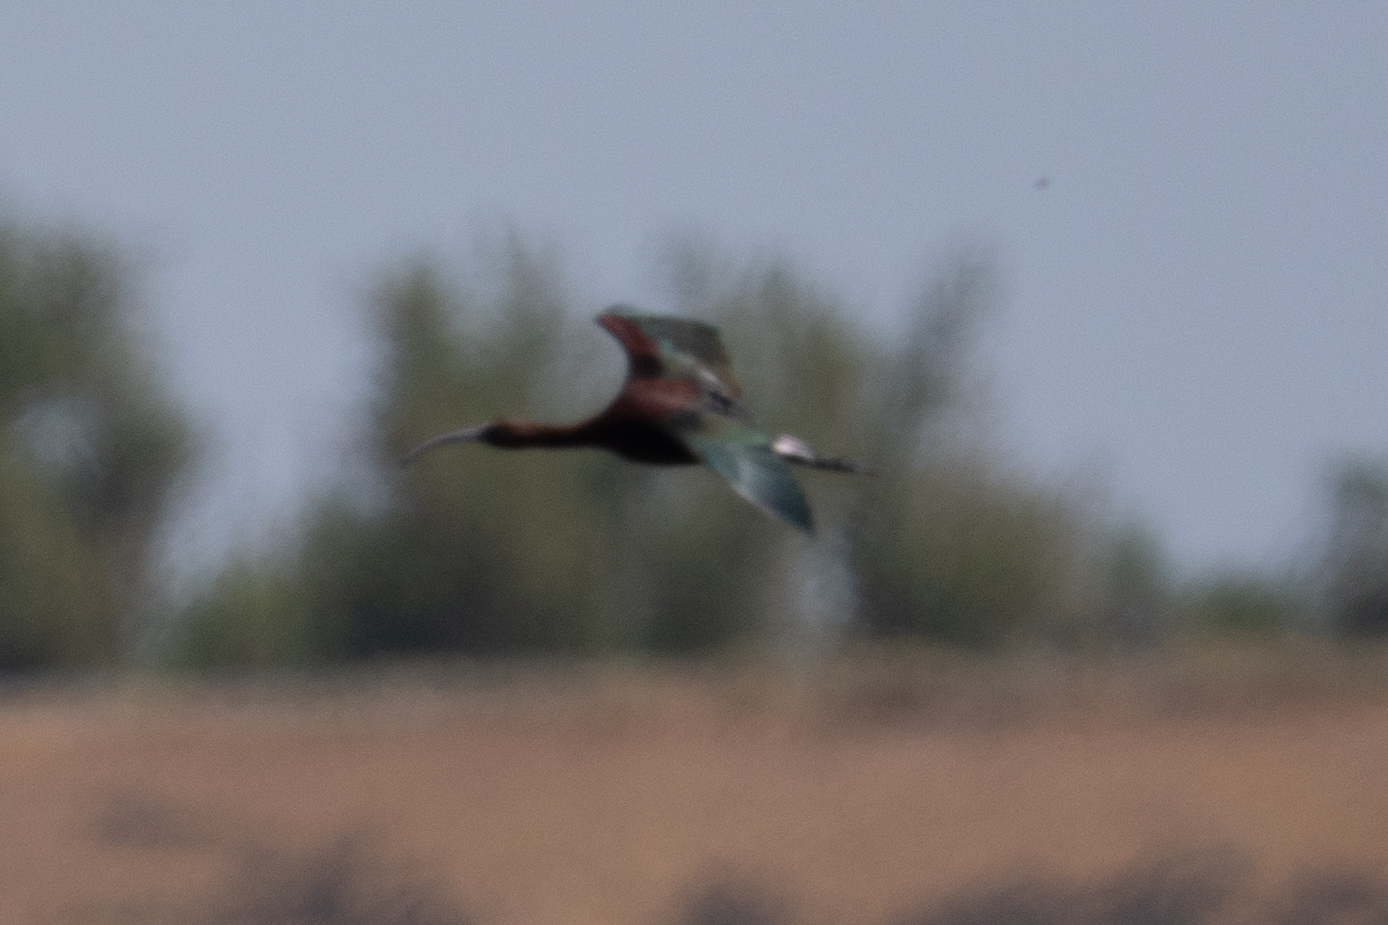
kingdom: Animalia
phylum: Chordata
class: Aves
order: Pelecaniformes
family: Threskiornithidae
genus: Plegadis
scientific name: Plegadis chihi
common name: White-faced ibis
